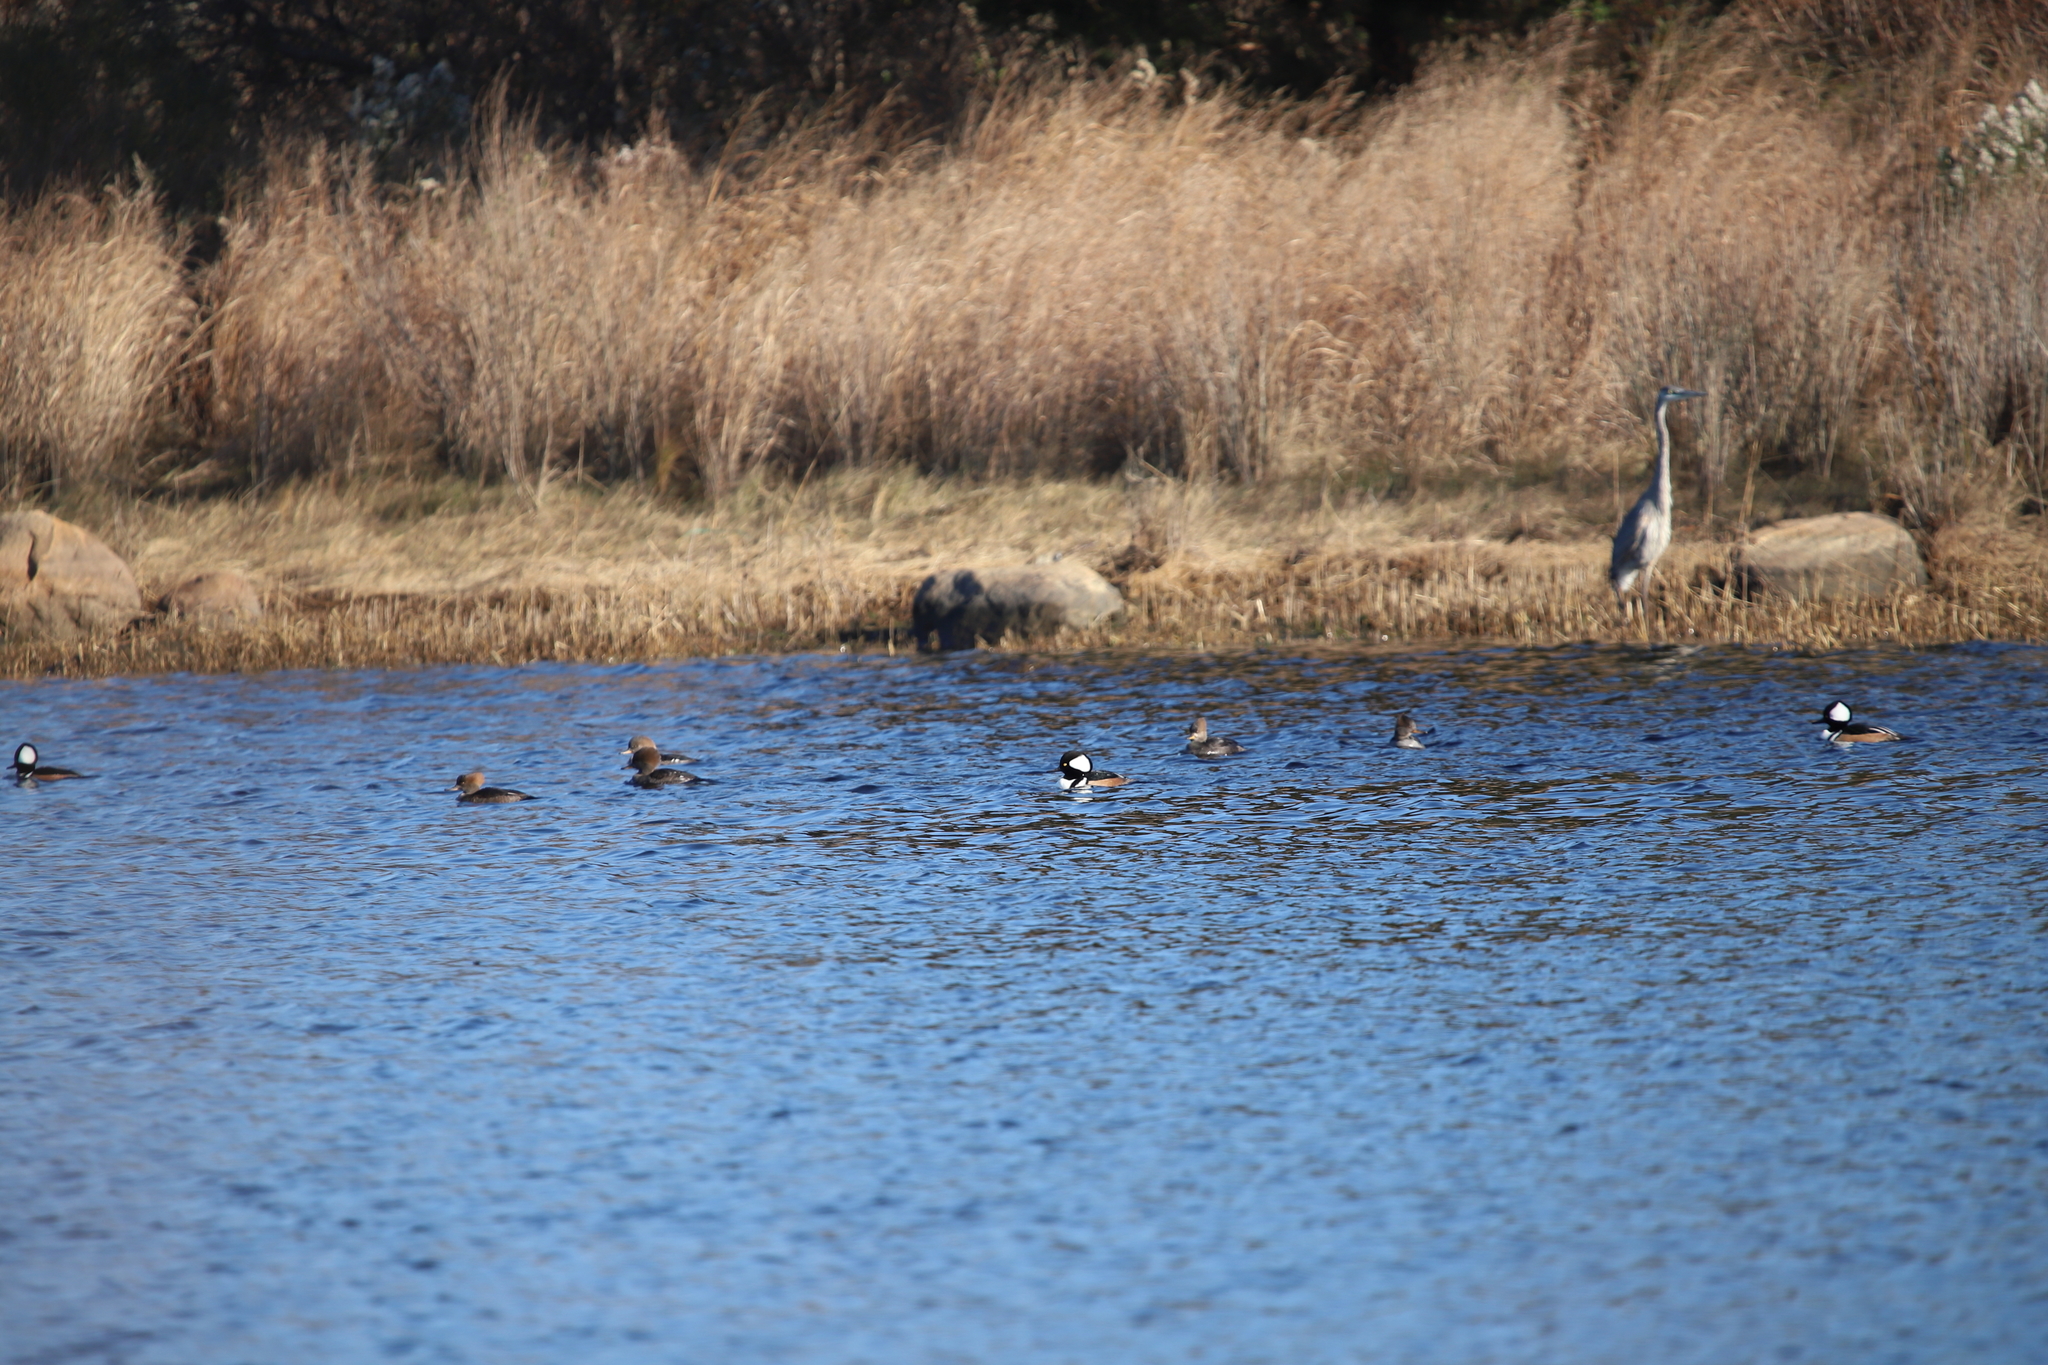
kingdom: Animalia
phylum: Chordata
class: Aves
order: Anseriformes
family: Anatidae
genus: Lophodytes
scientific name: Lophodytes cucullatus
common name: Hooded merganser
